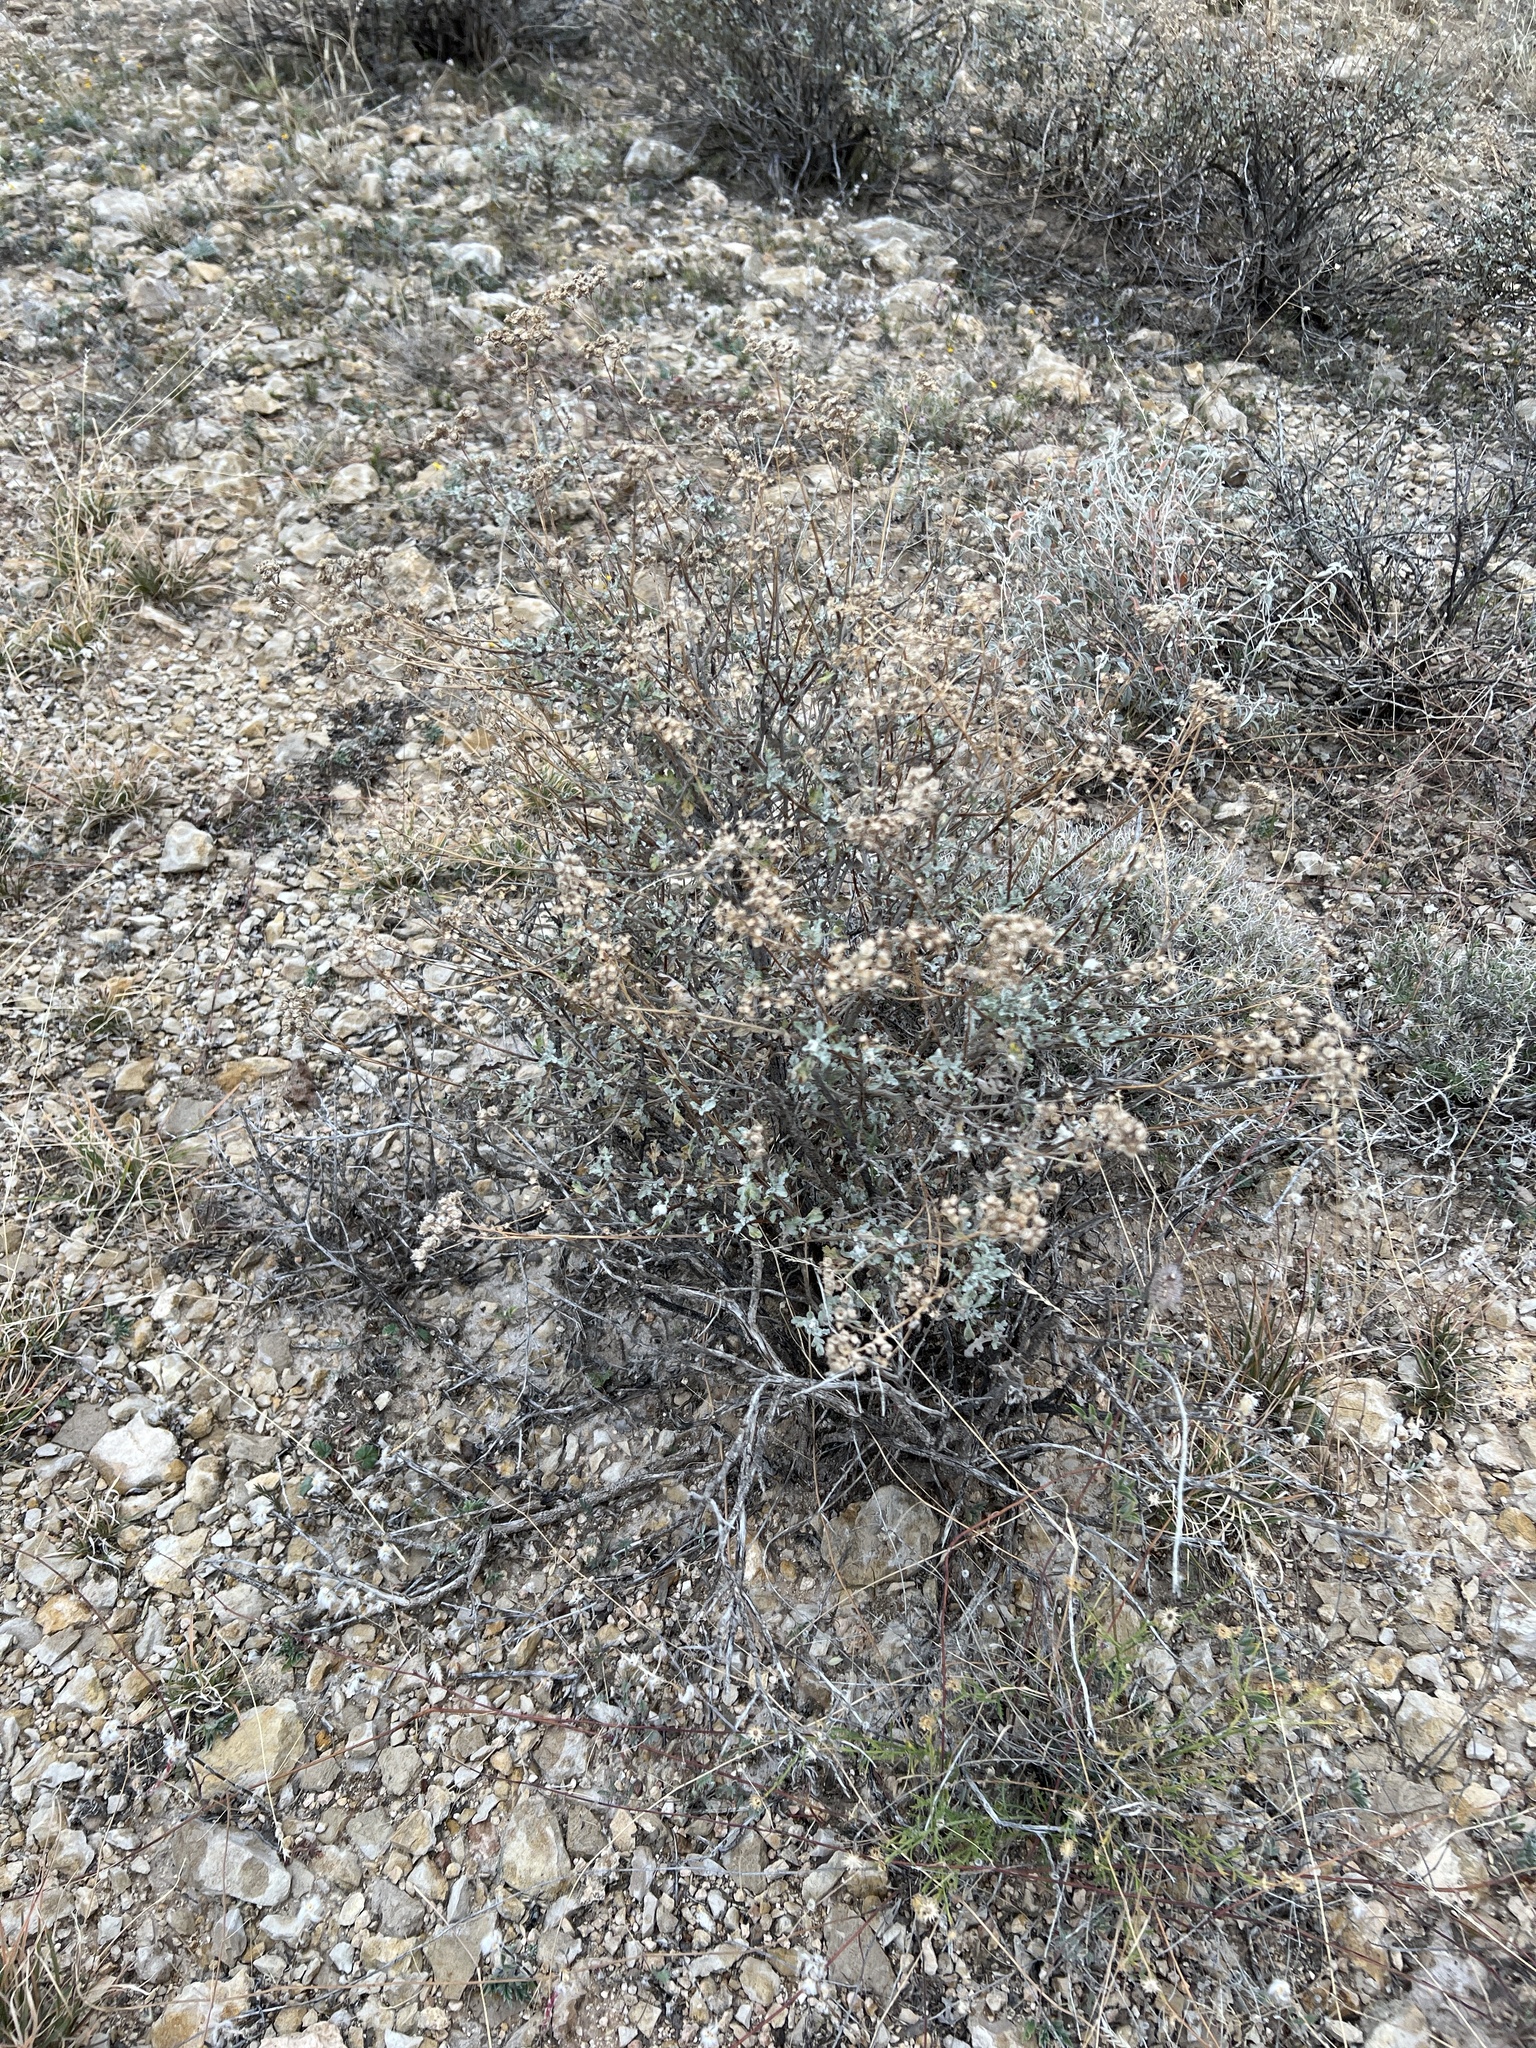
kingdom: Plantae
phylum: Tracheophyta
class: Magnoliopsida
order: Asterales
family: Asteraceae
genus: Parthenium
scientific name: Parthenium incanum
